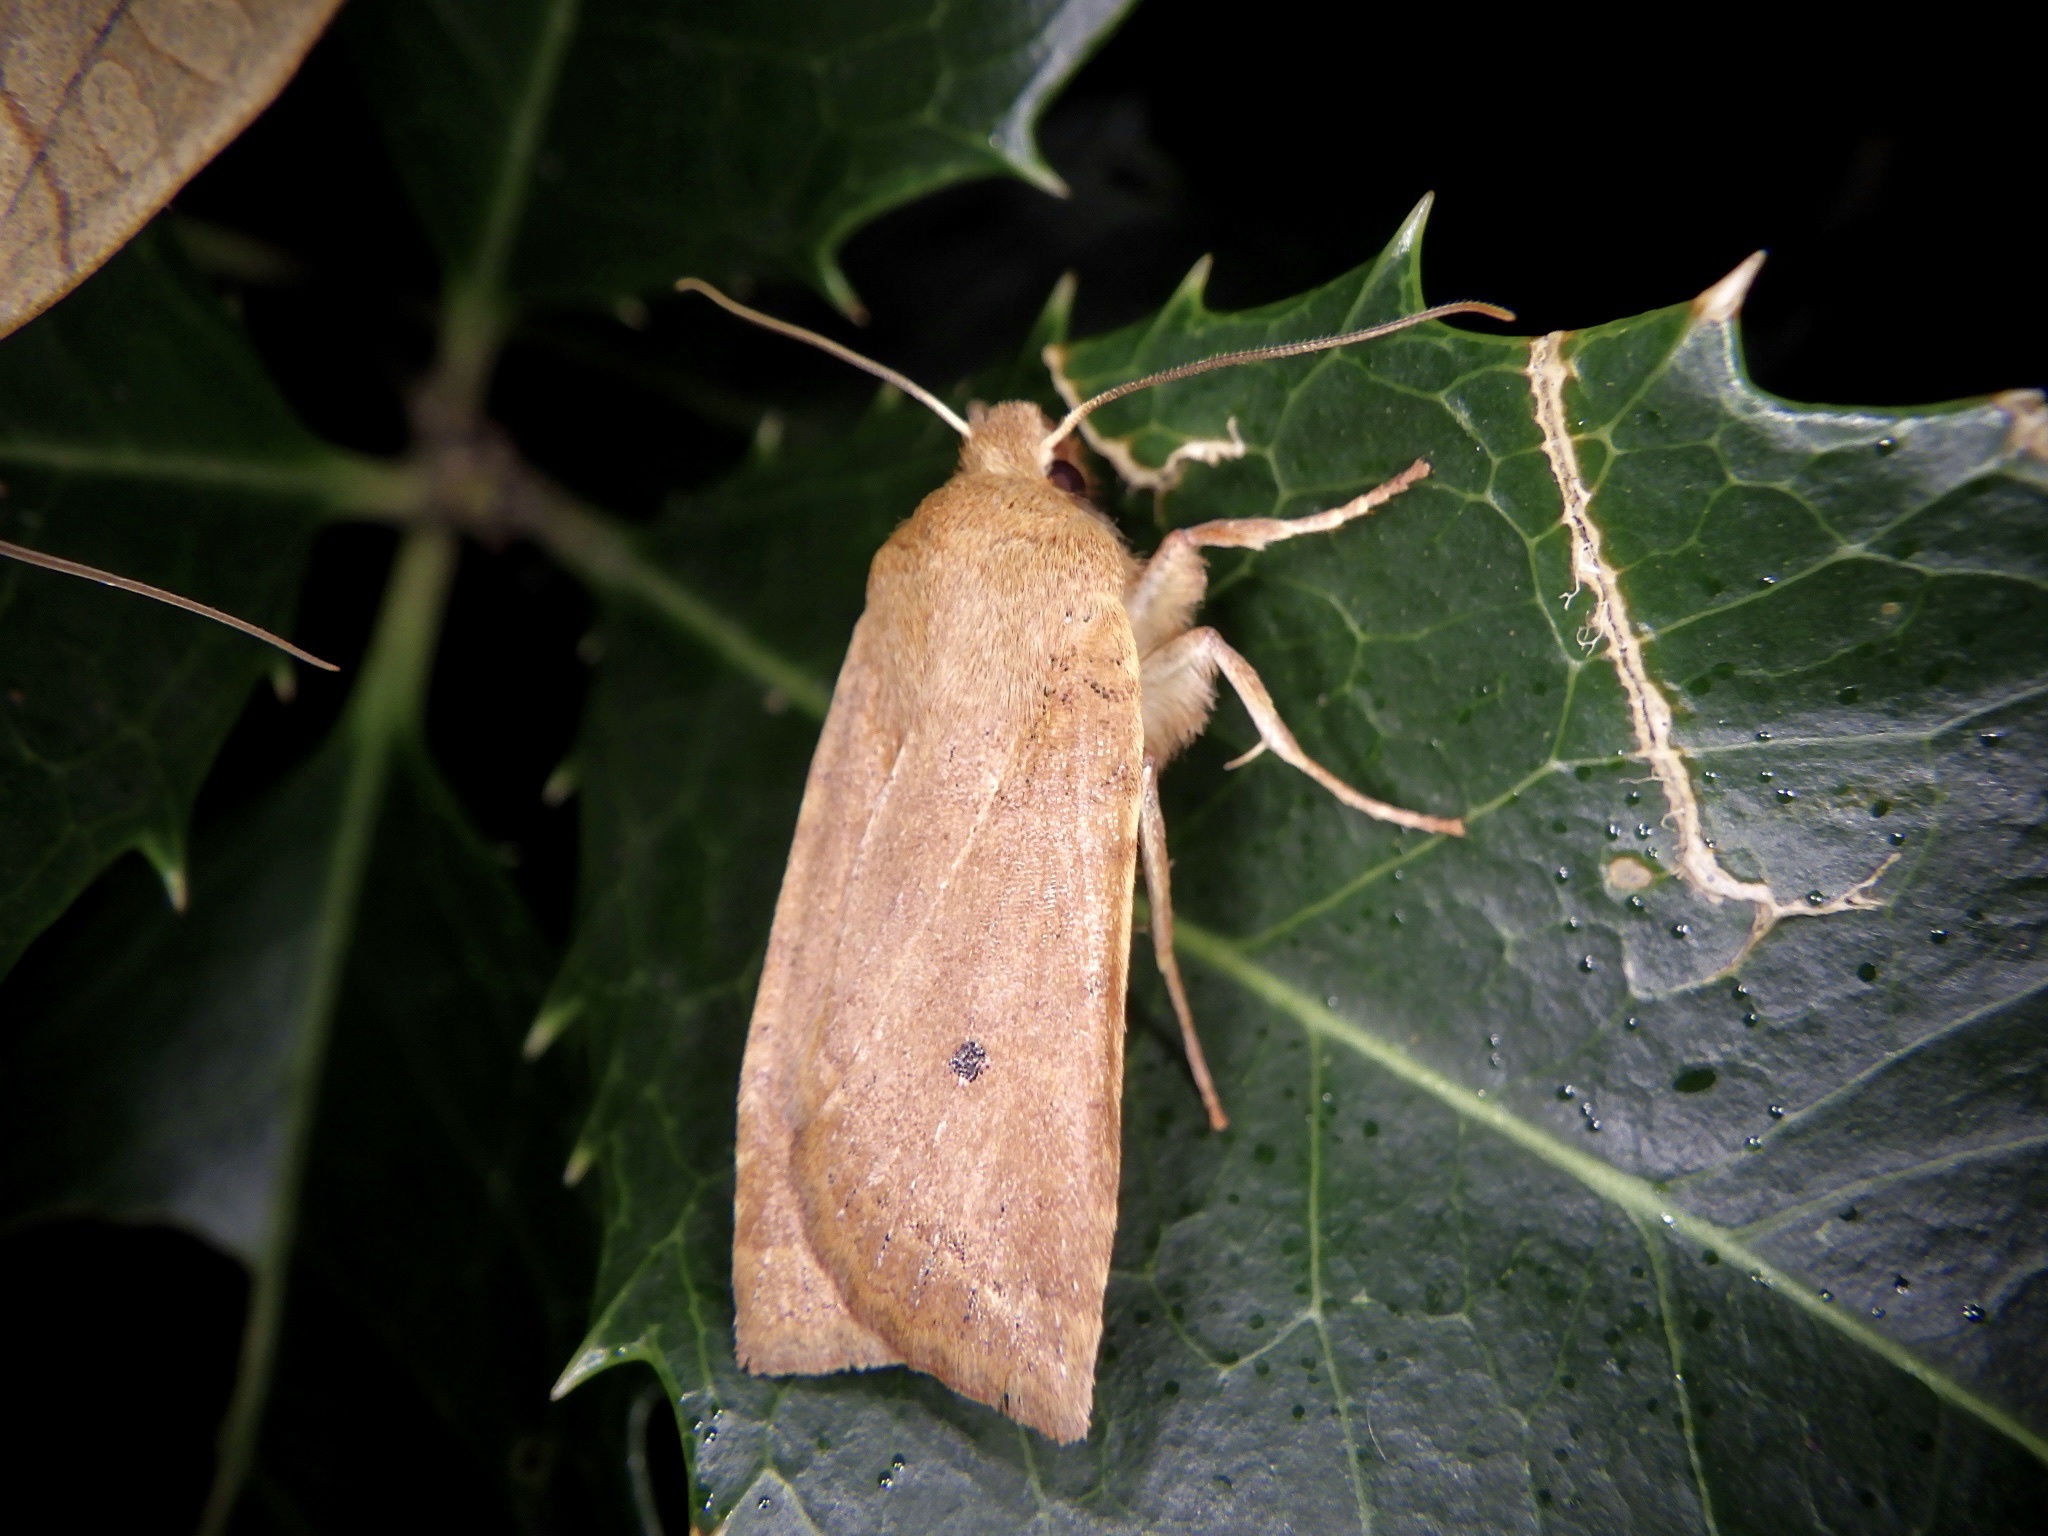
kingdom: Animalia
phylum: Arthropoda
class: Insecta
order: Lepidoptera
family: Noctuidae
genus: Conistra
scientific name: Conistra albipuncta
